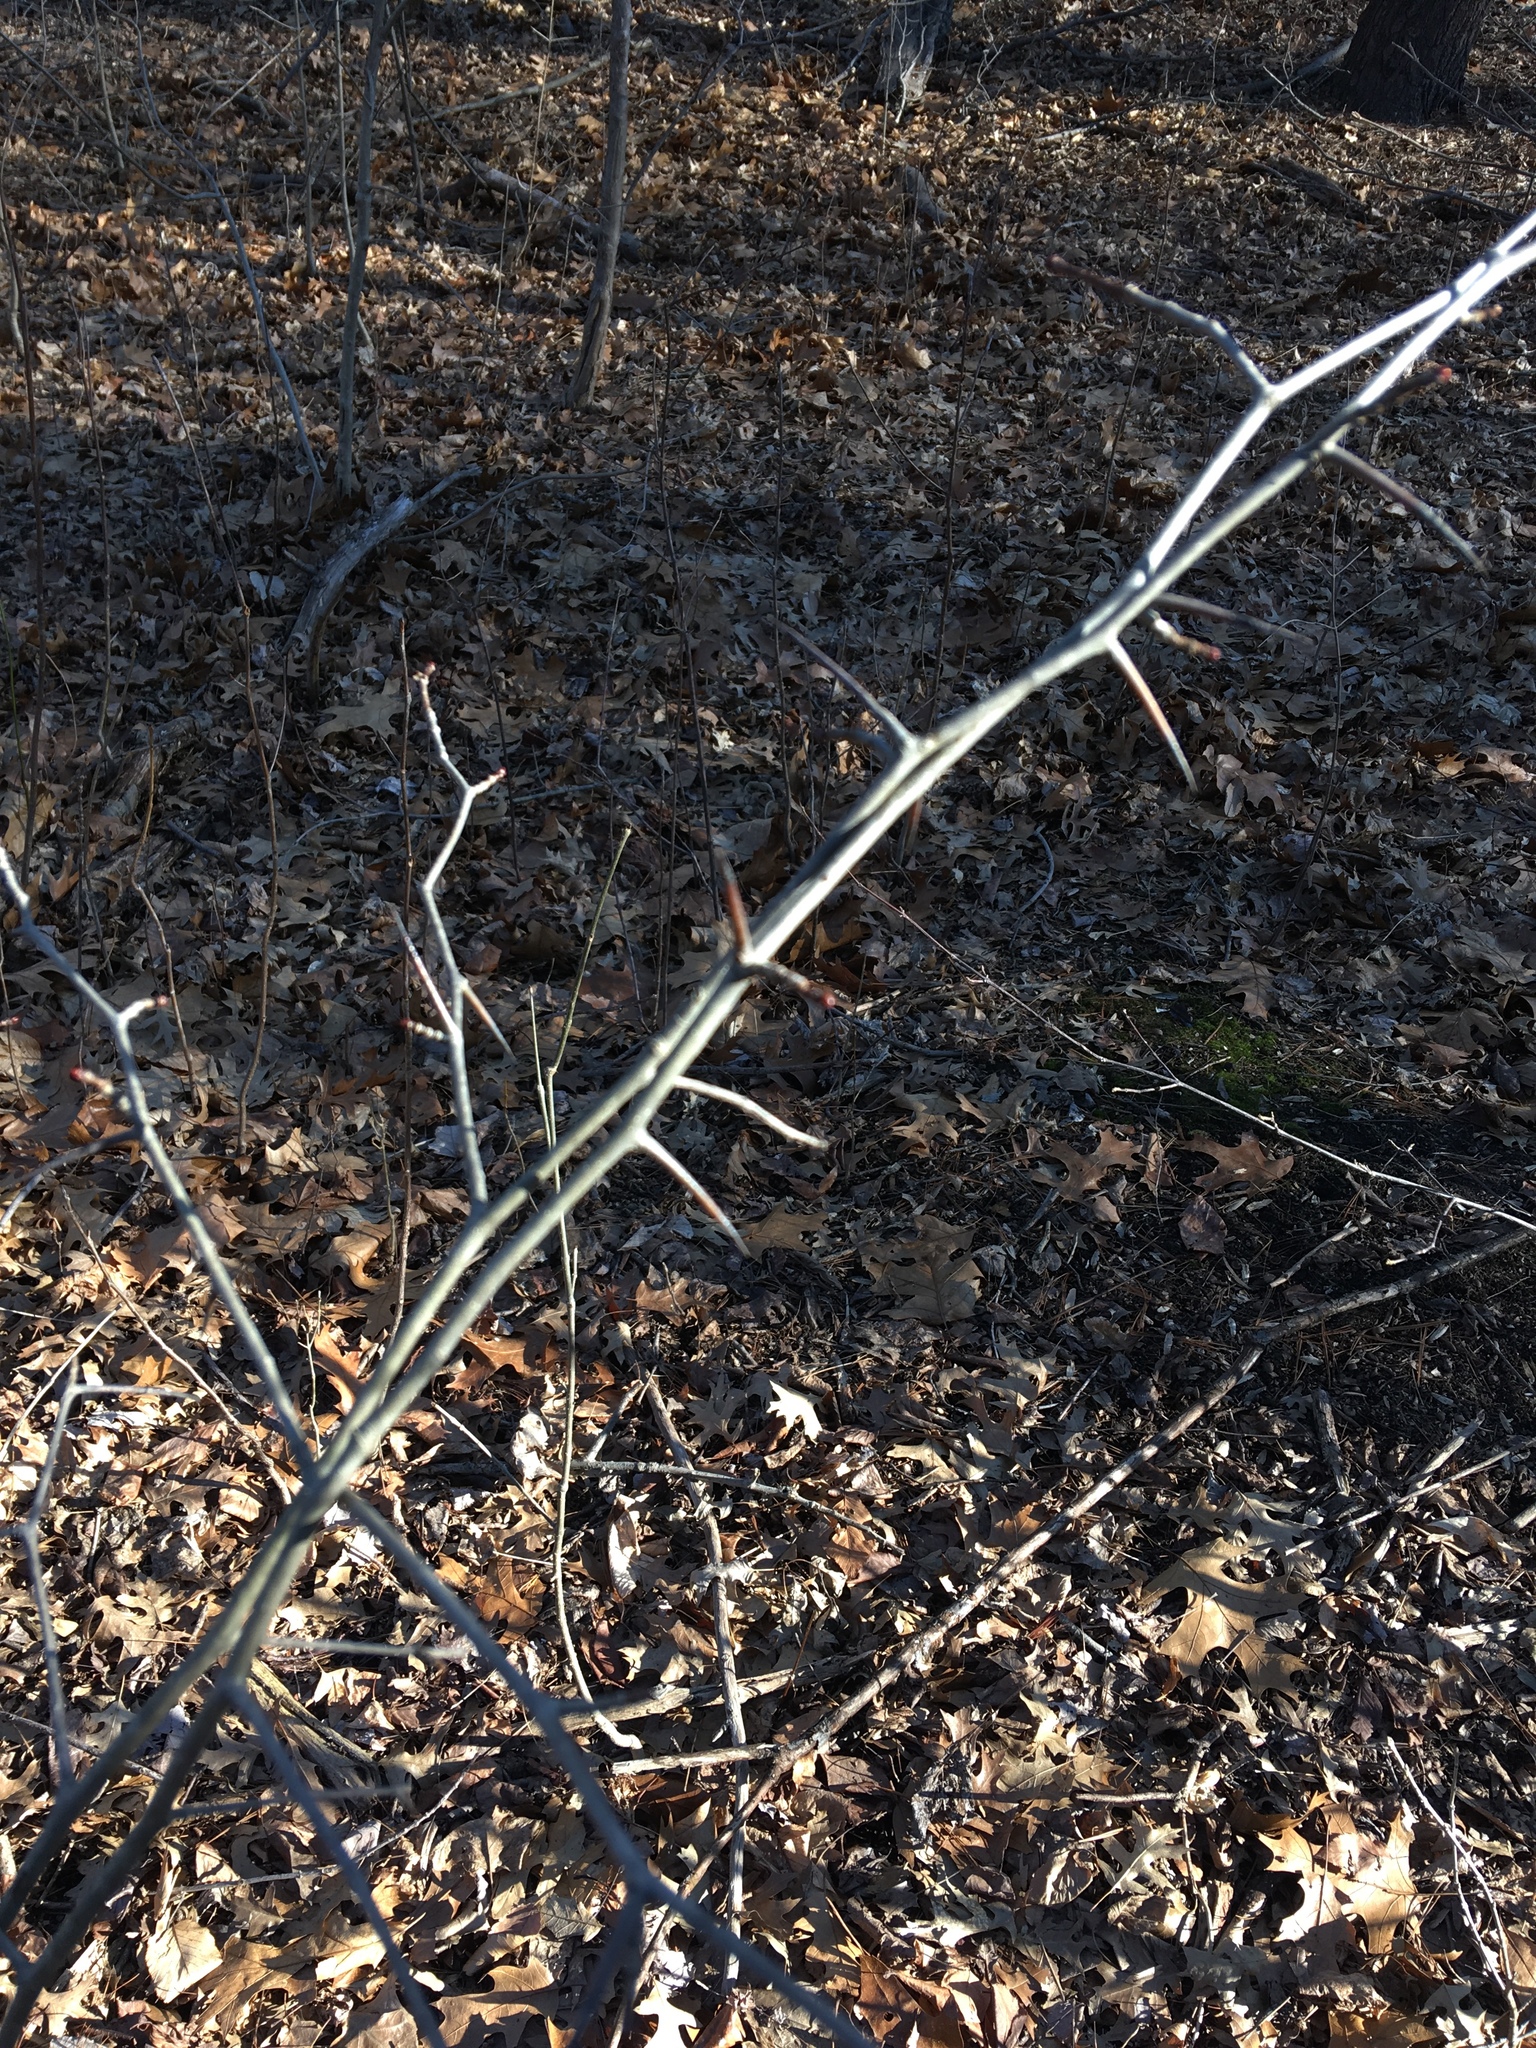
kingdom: Plantae
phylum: Tracheophyta
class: Magnoliopsida
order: Rosales
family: Rosaceae
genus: Crataegus
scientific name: Crataegus
